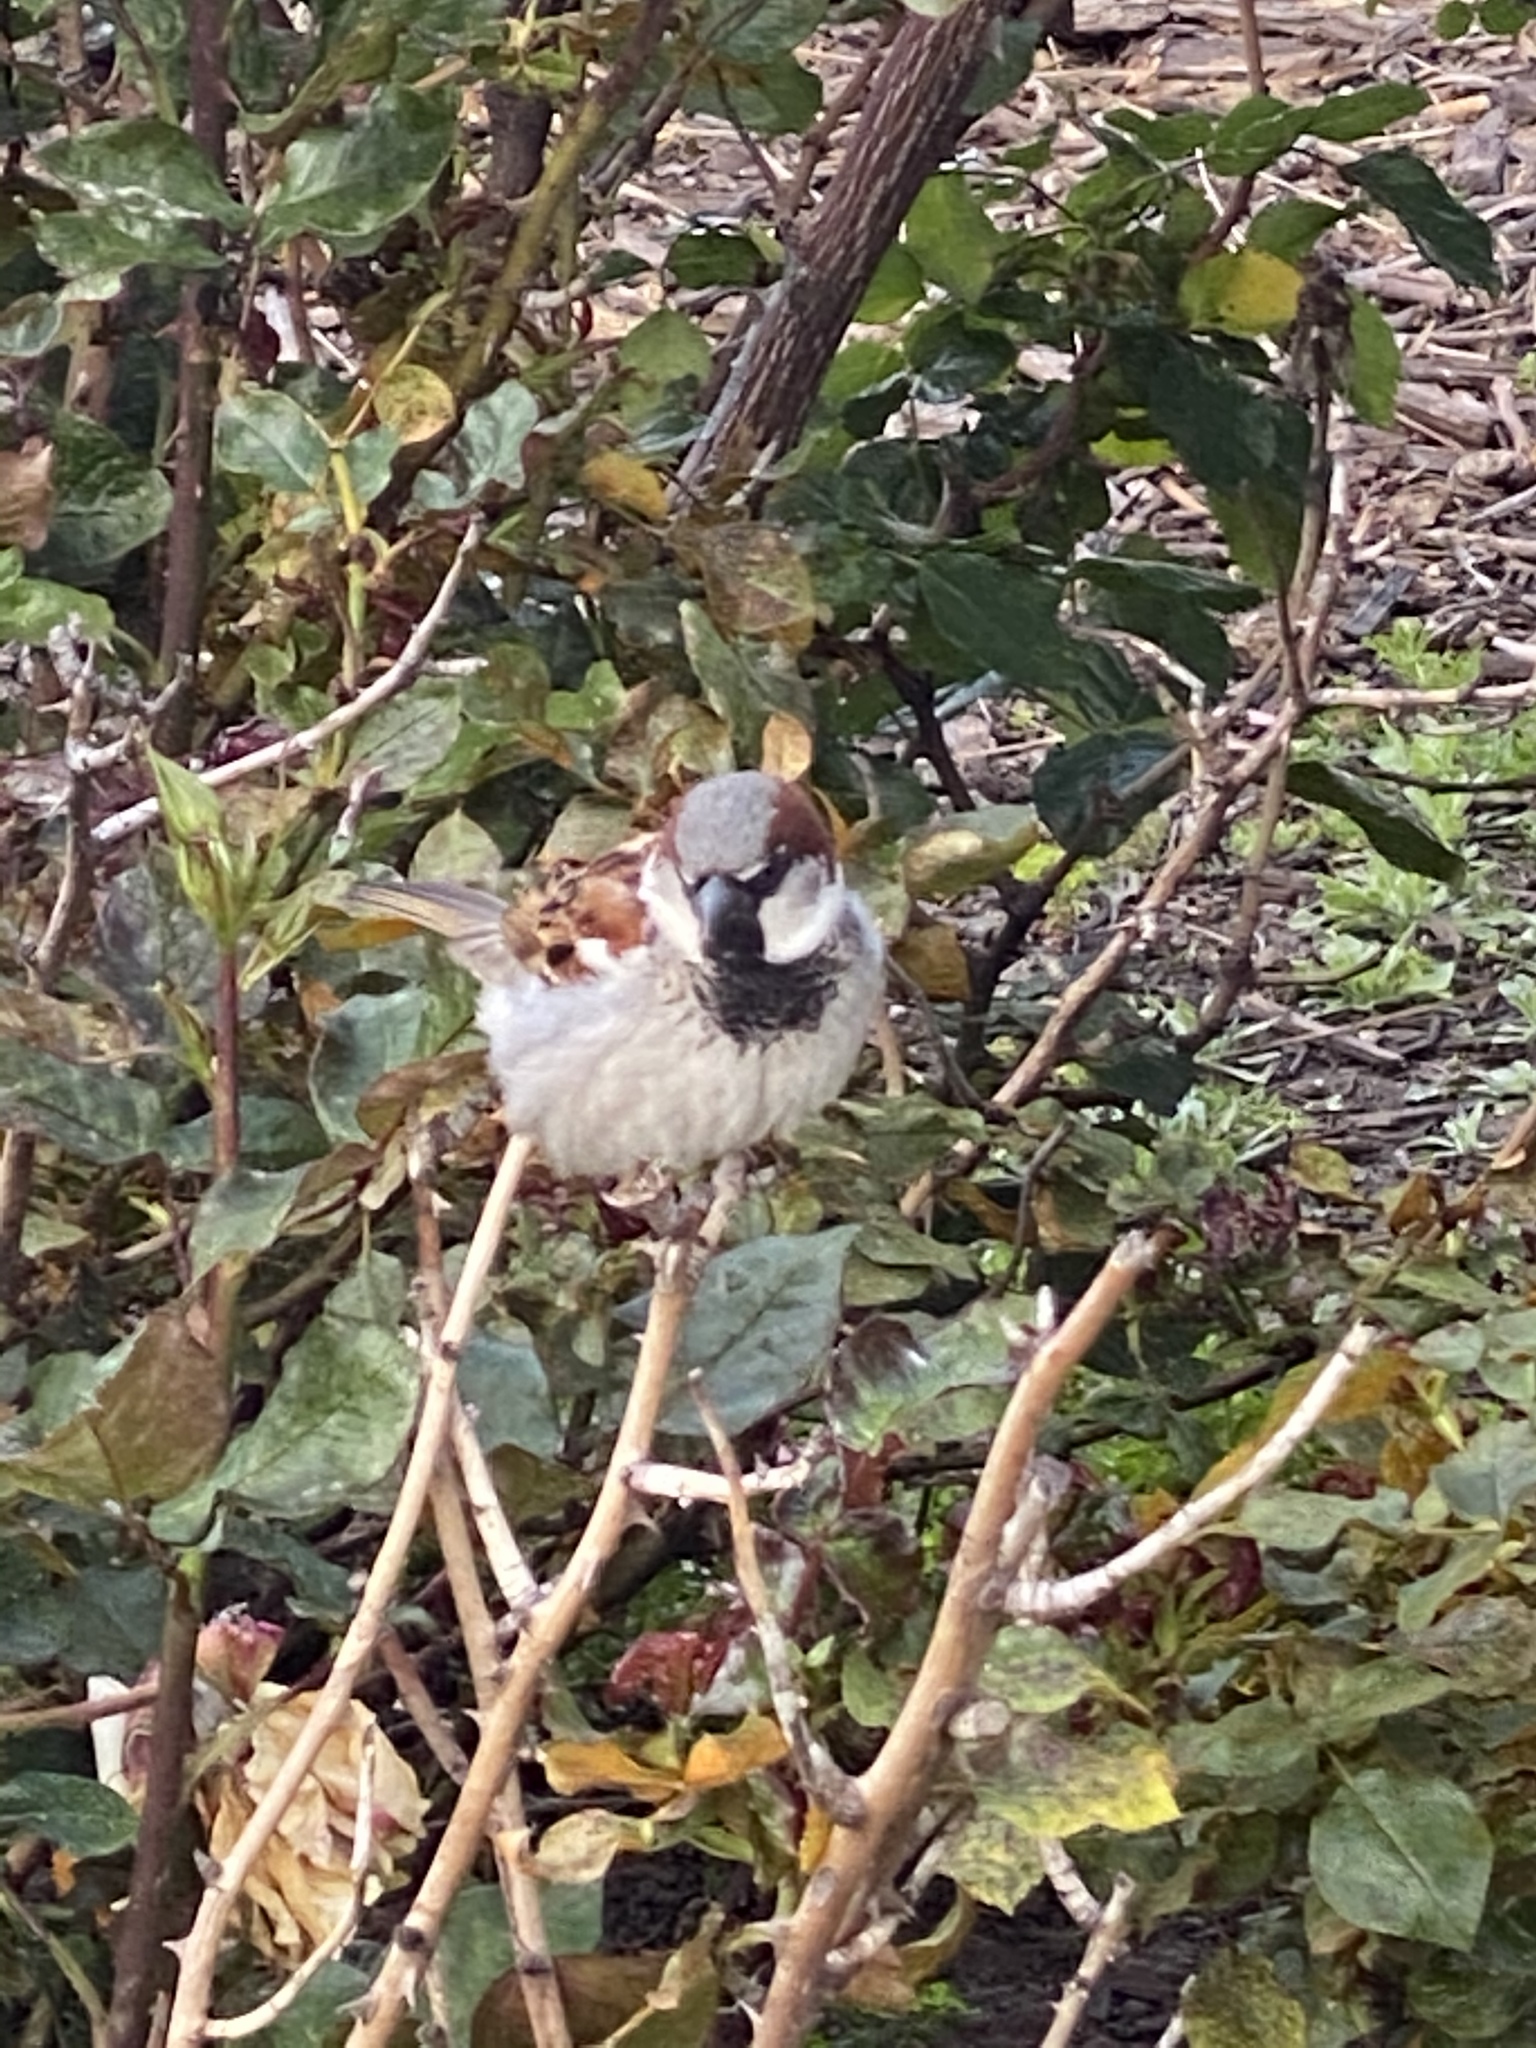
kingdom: Animalia
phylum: Chordata
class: Aves
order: Passeriformes
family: Passeridae
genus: Passer
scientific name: Passer domesticus
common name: House sparrow
